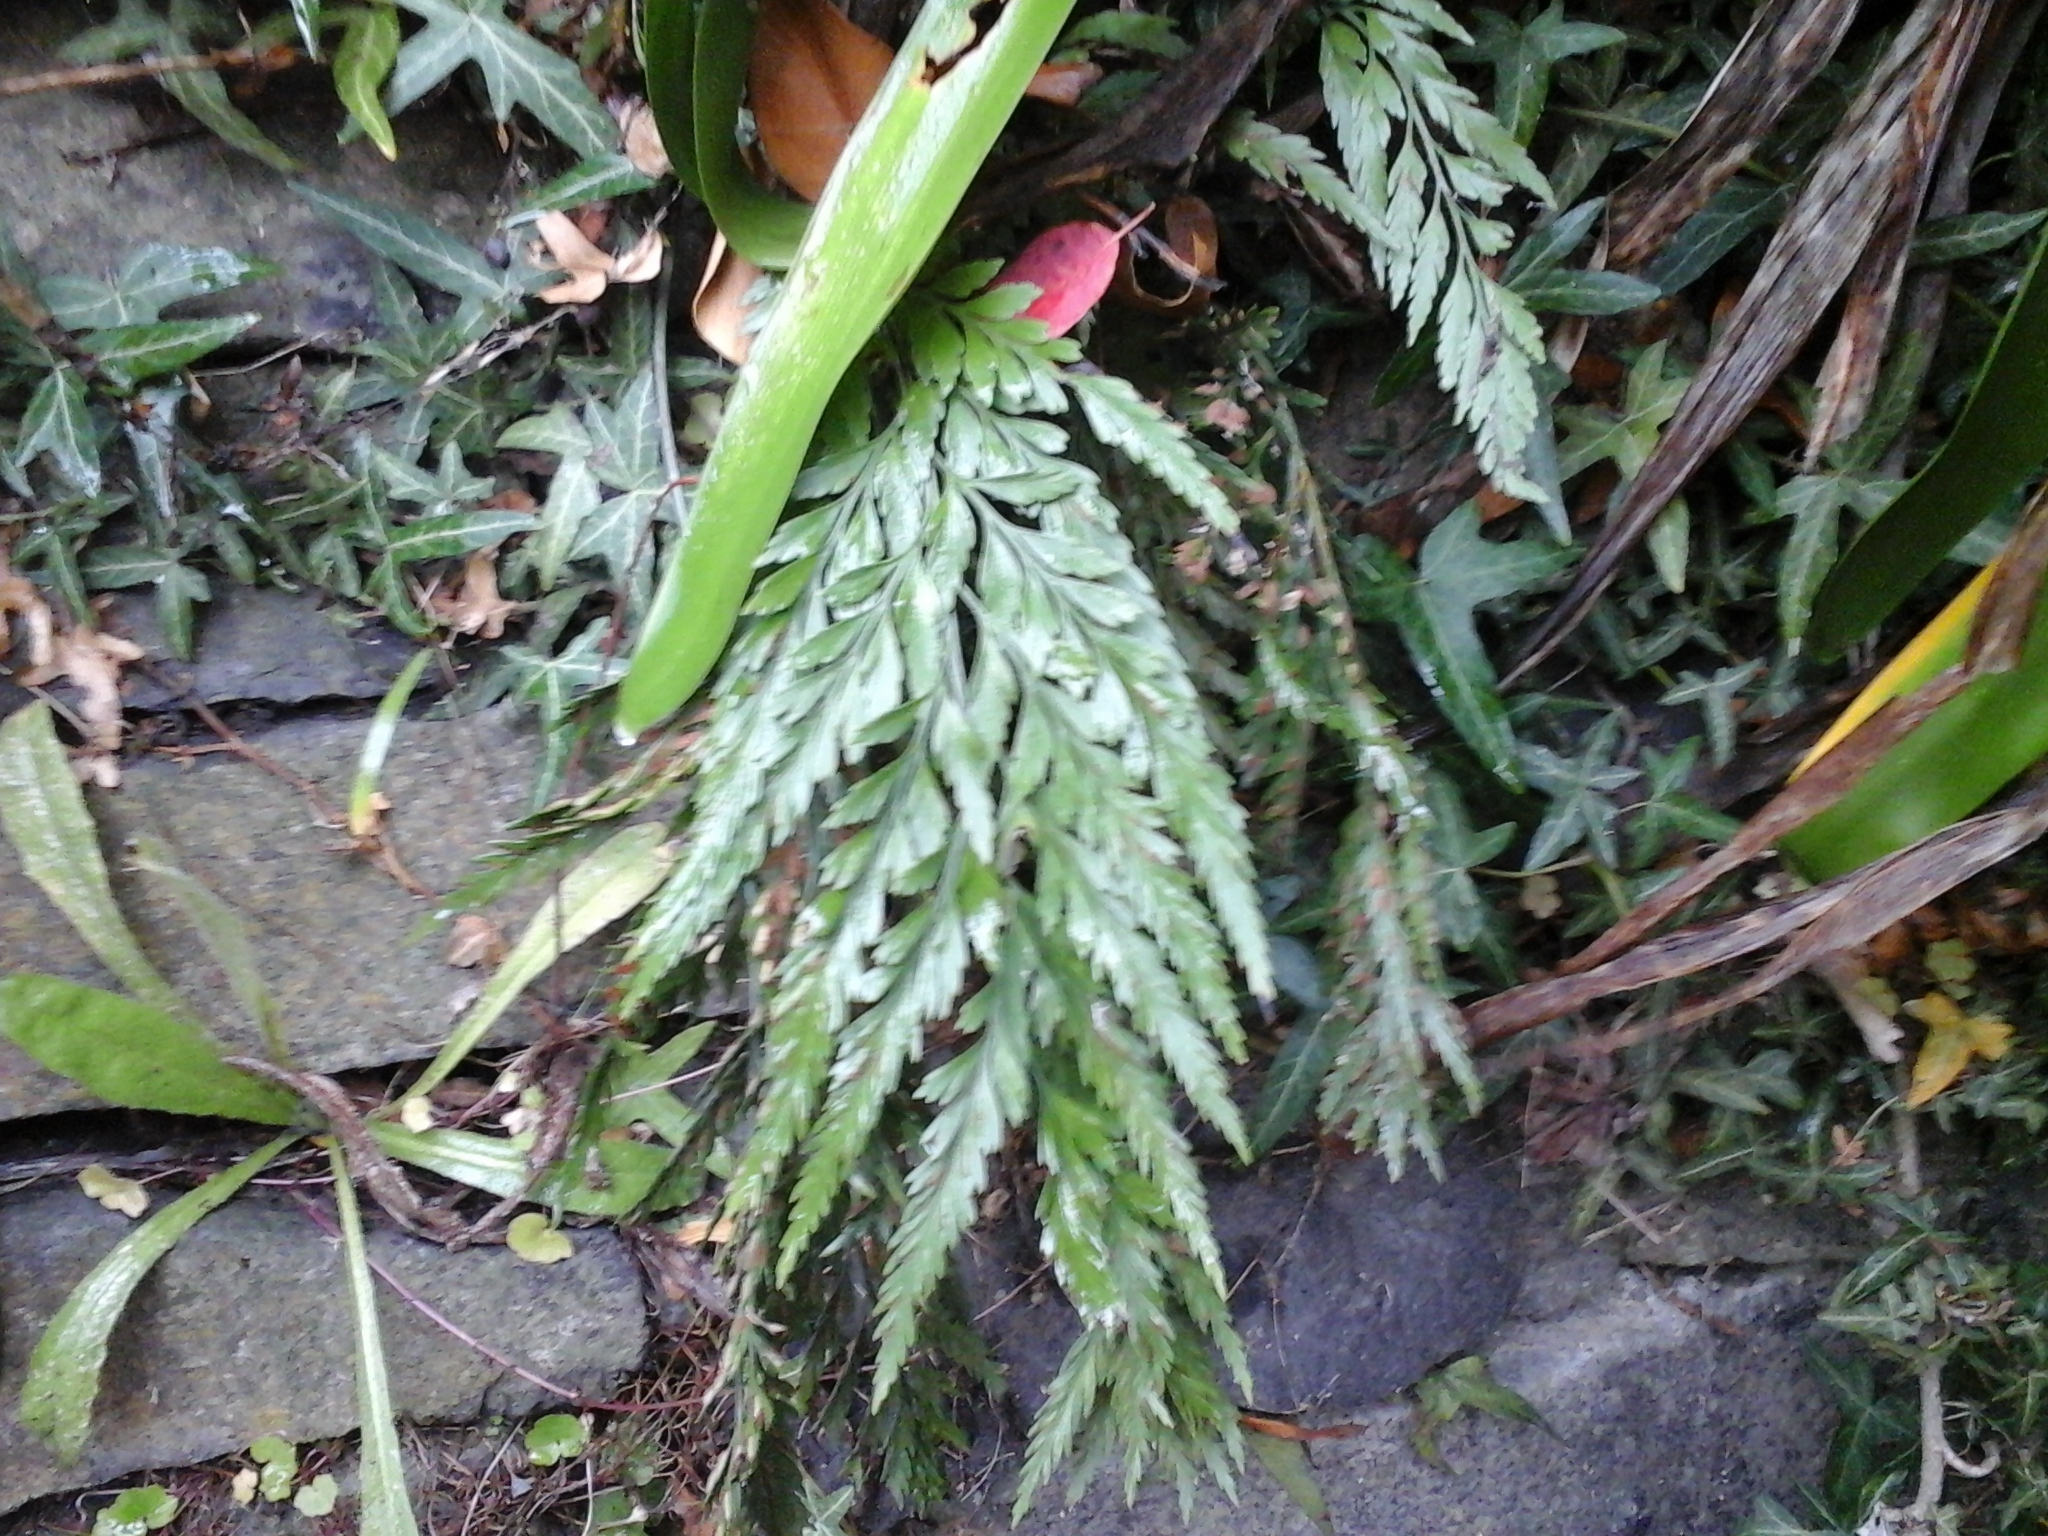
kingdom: Plantae
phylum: Tracheophyta
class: Polypodiopsida
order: Polypodiales
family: Aspleniaceae
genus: Asplenium
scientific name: Asplenium appendiculatum
